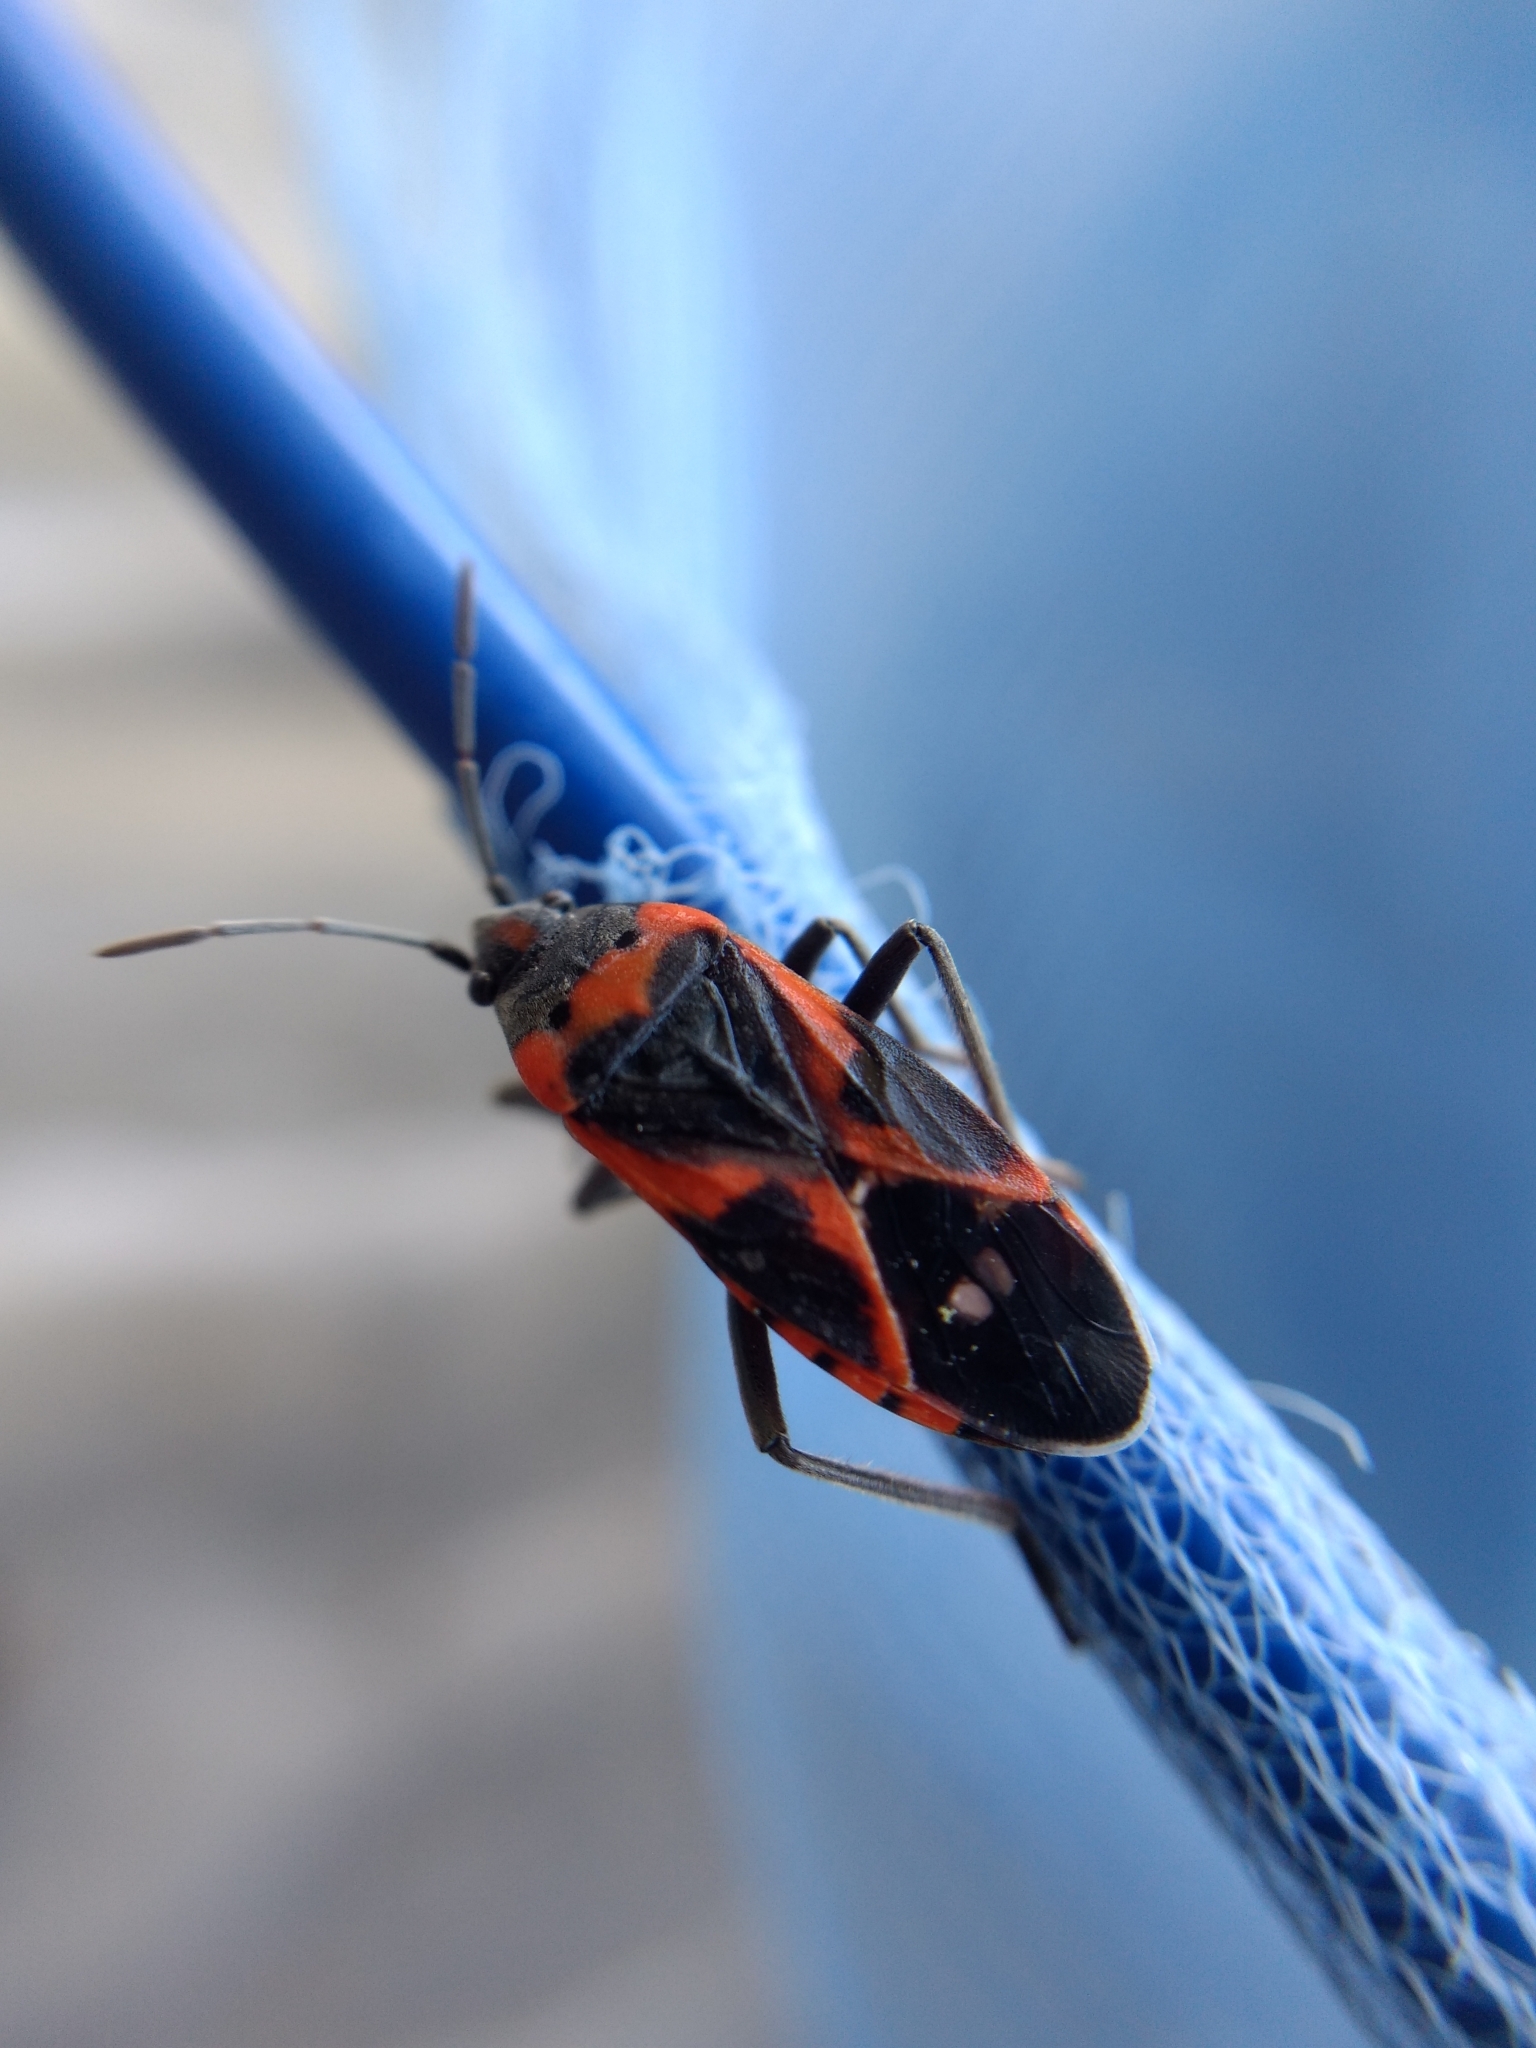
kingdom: Animalia
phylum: Arthropoda
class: Insecta
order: Hemiptera
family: Lygaeidae
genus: Lygaeus
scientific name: Lygaeus kalmii
